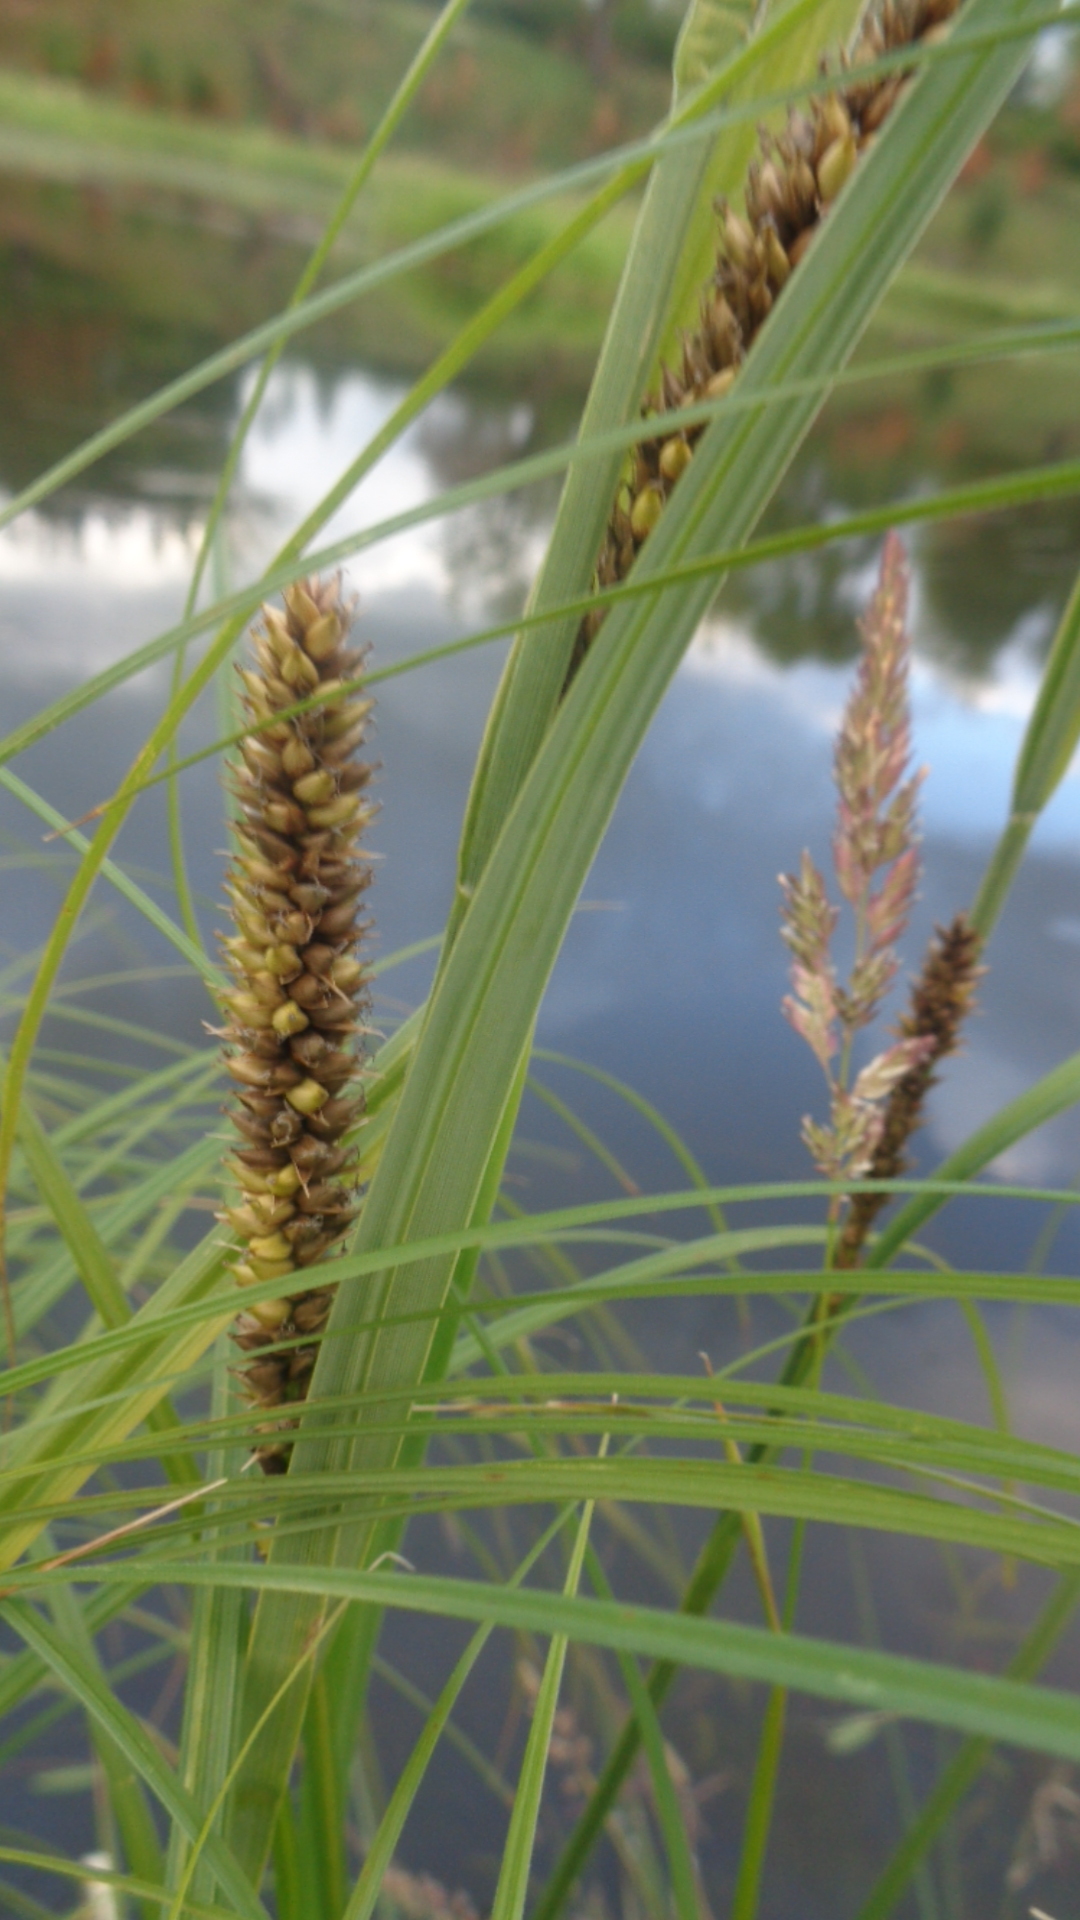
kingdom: Plantae
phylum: Tracheophyta
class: Liliopsida
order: Poales
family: Cyperaceae
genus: Carex
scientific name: Carex riparia
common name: Greater pond-sedge
